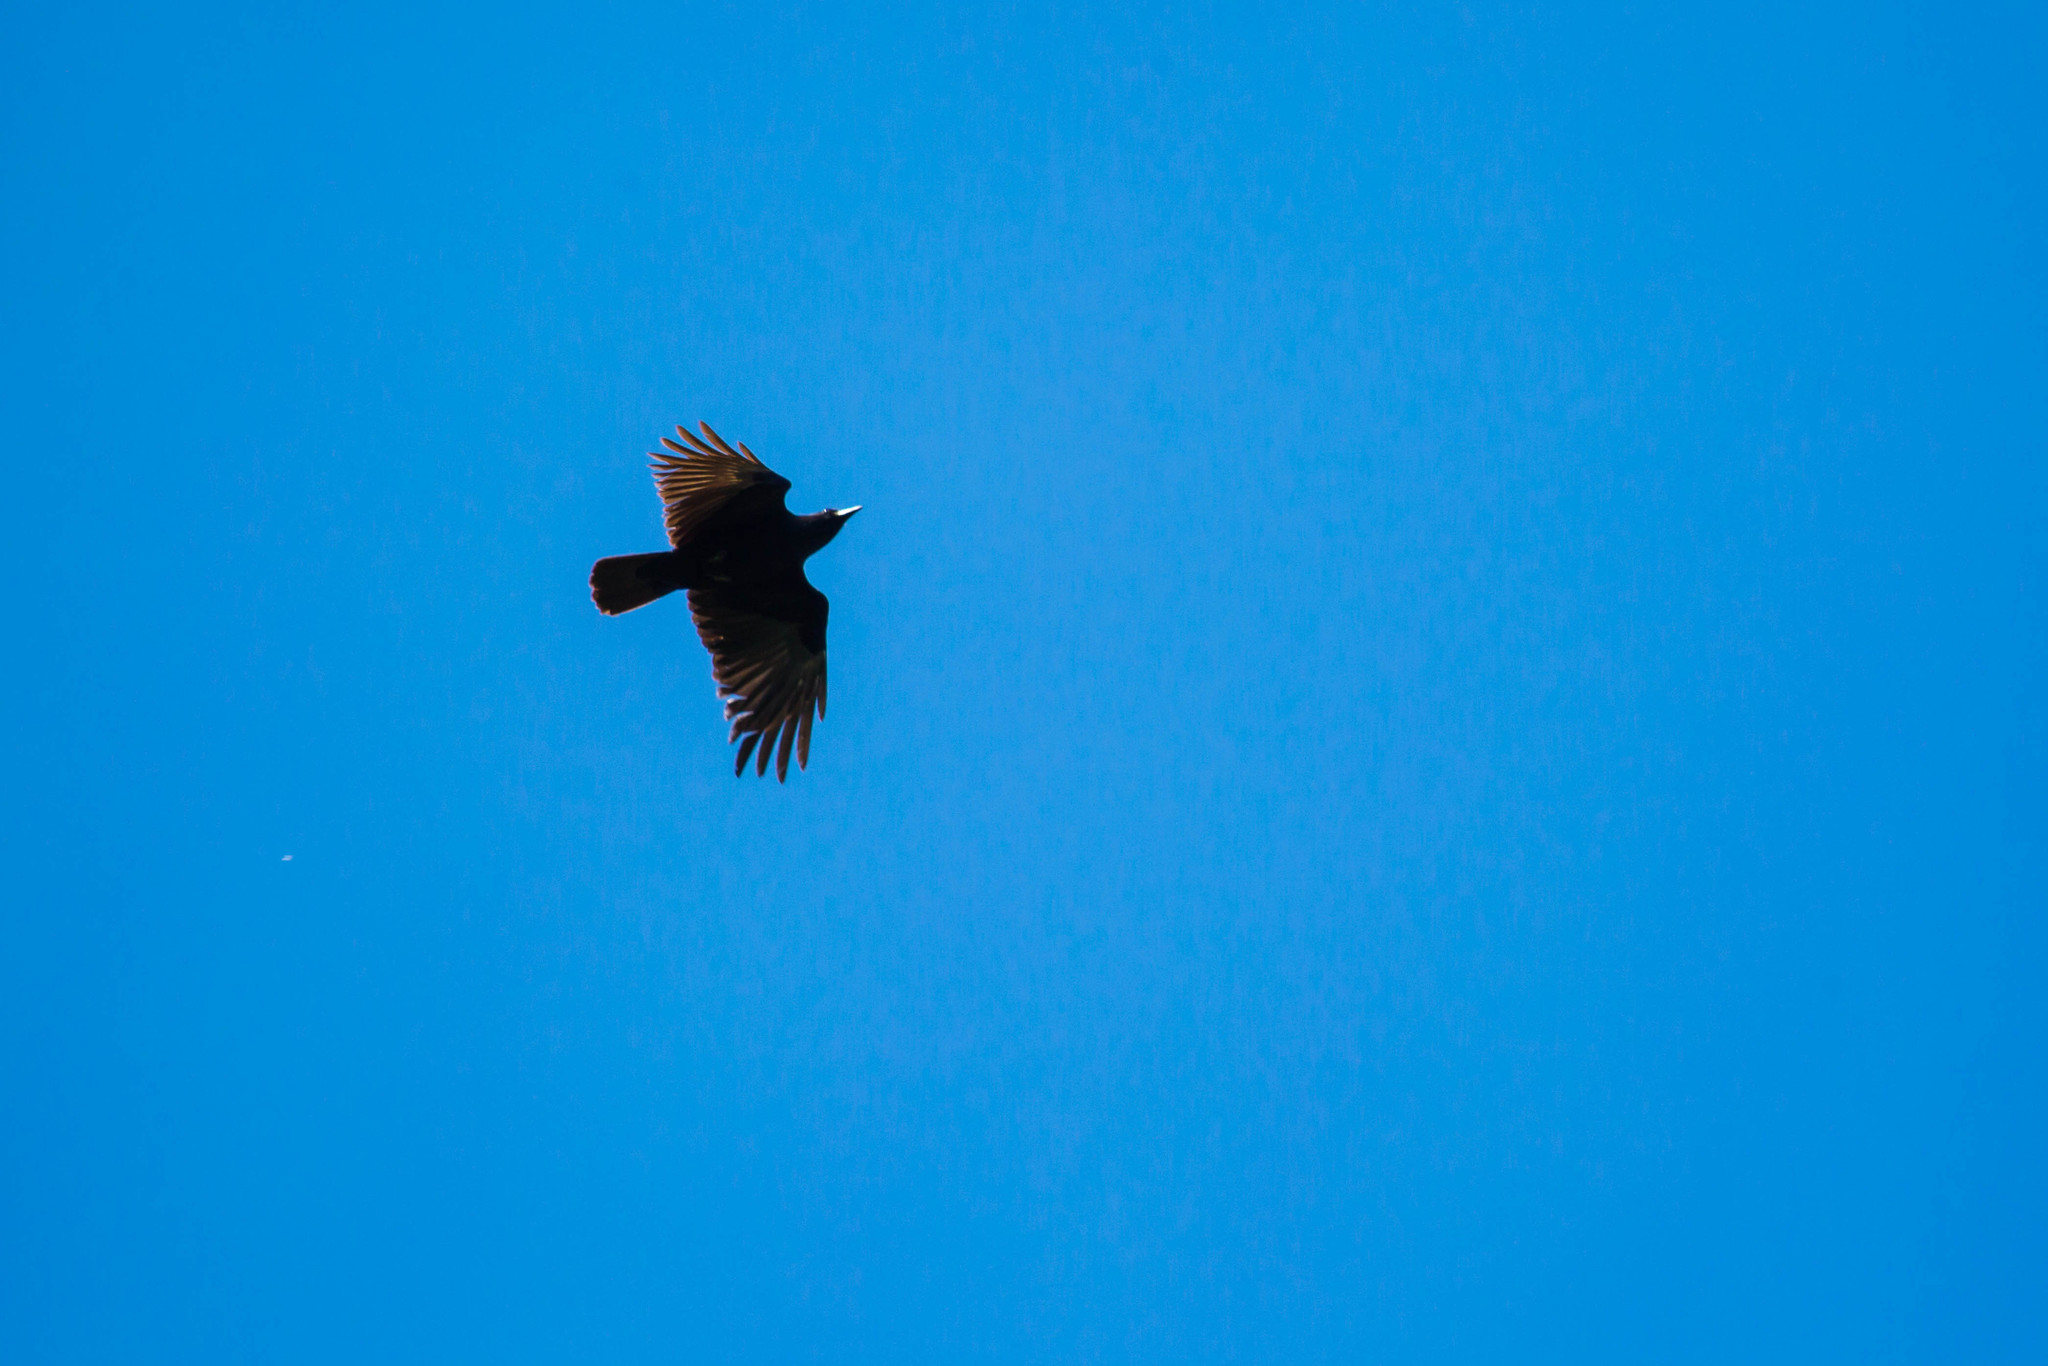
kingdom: Animalia
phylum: Chordata
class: Aves
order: Passeriformes
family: Corvidae
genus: Corvus
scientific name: Corvus ossifragus
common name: Fish crow
